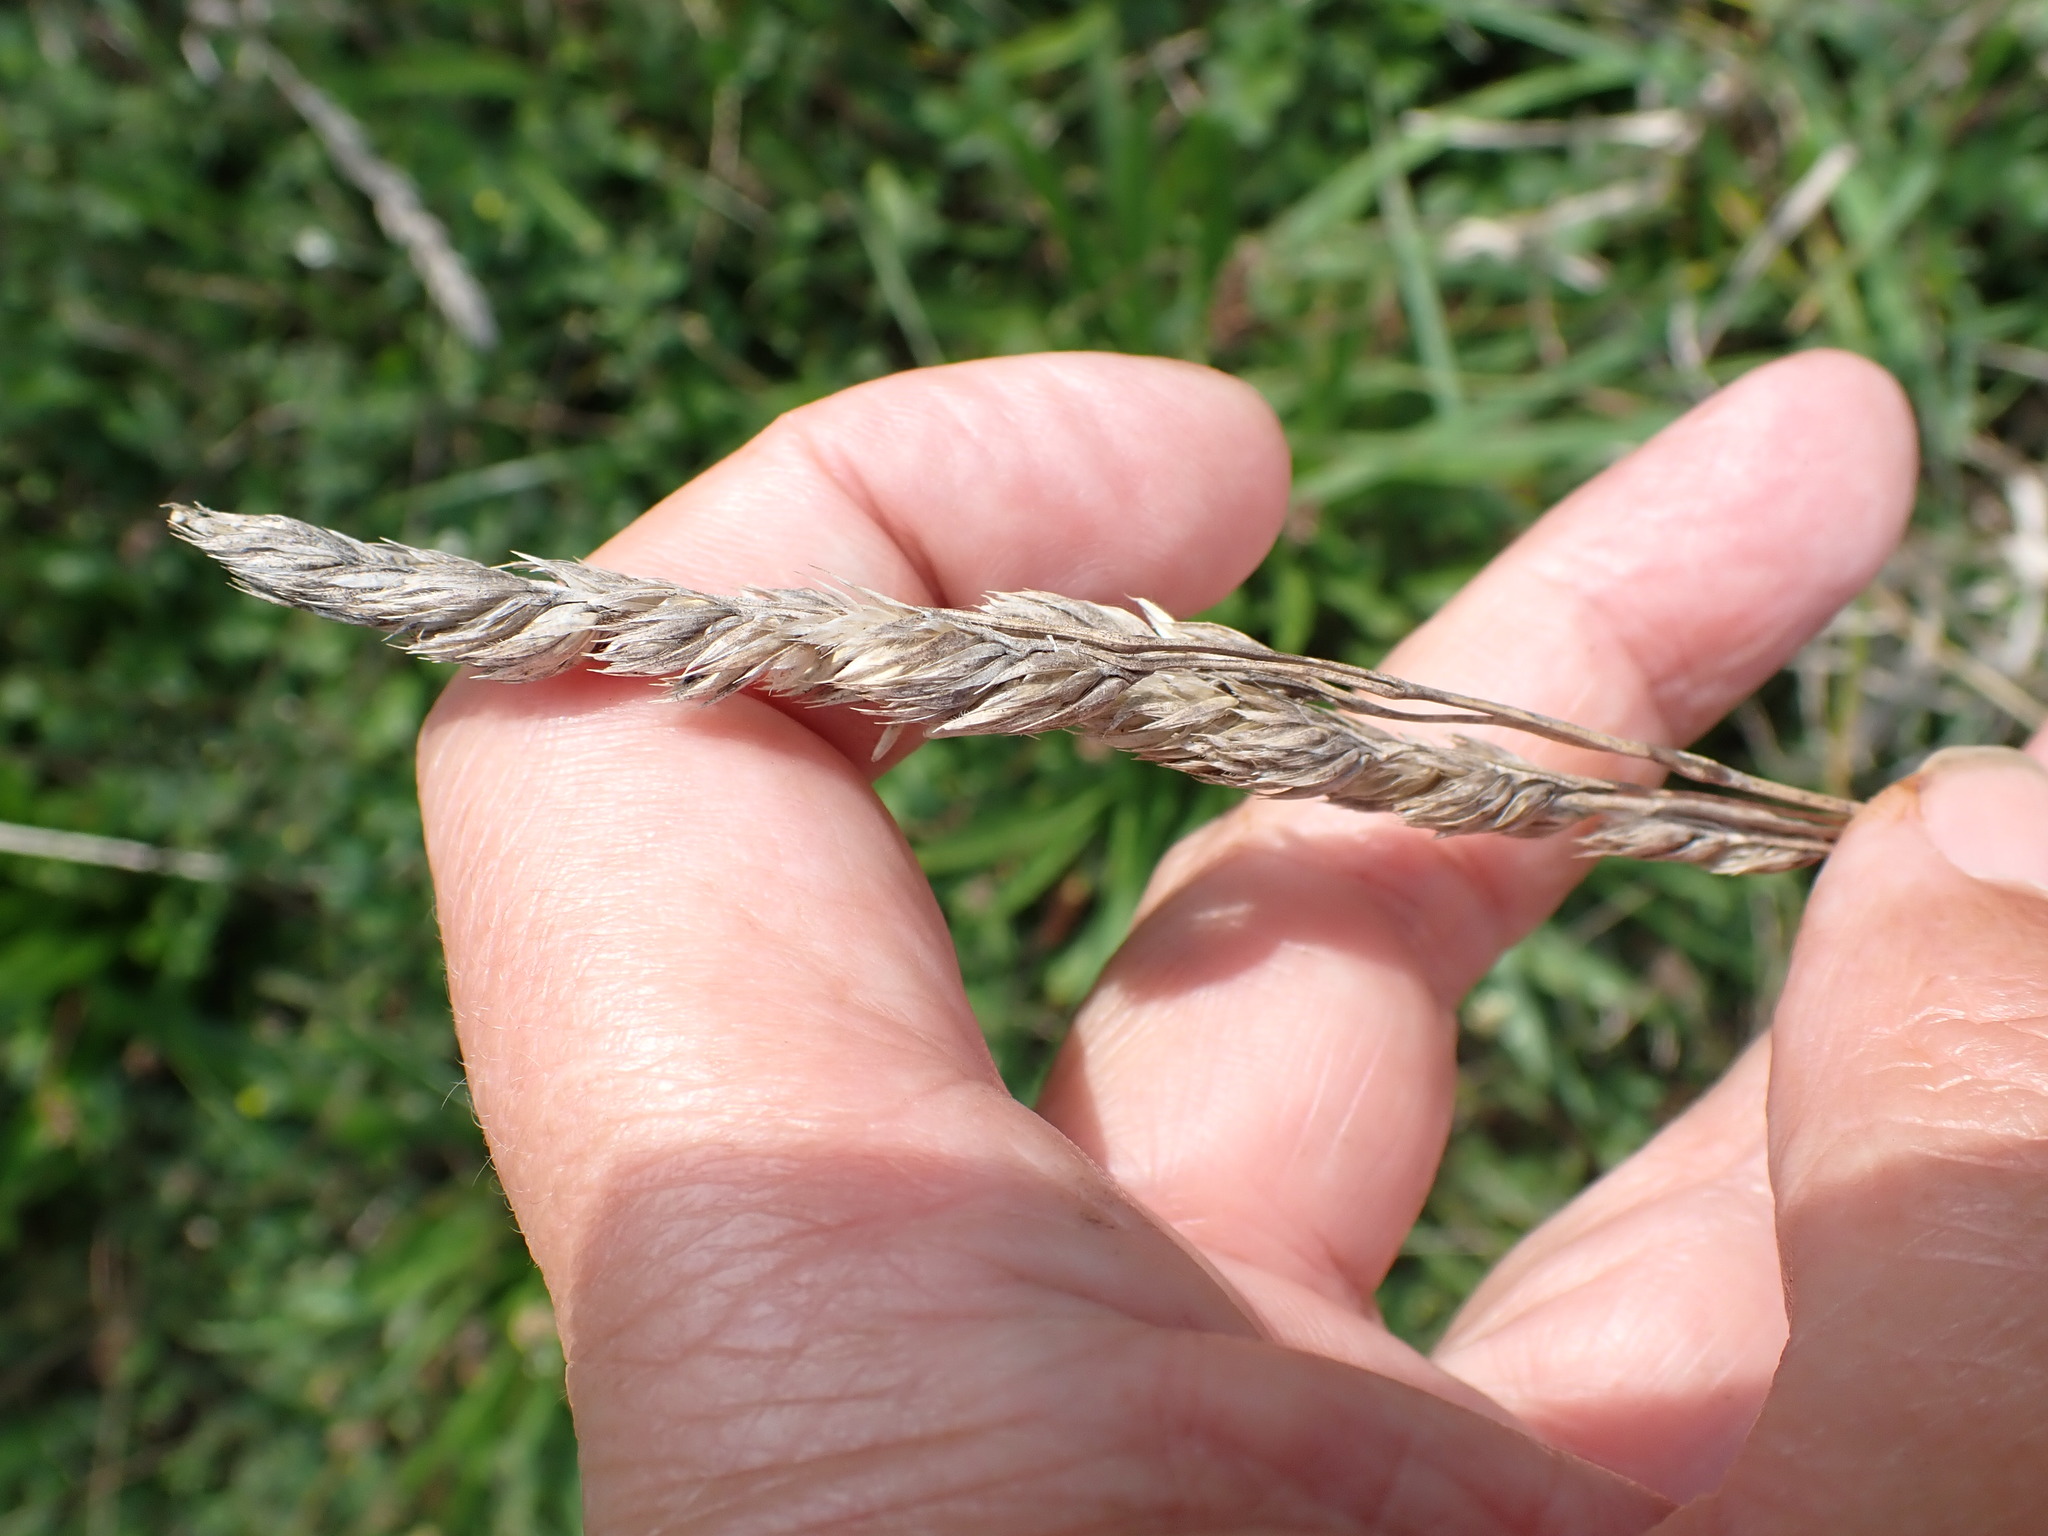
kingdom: Plantae
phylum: Tracheophyta
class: Liliopsida
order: Poales
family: Poaceae
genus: Dactylis
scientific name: Dactylis glomerata
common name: Orchardgrass
